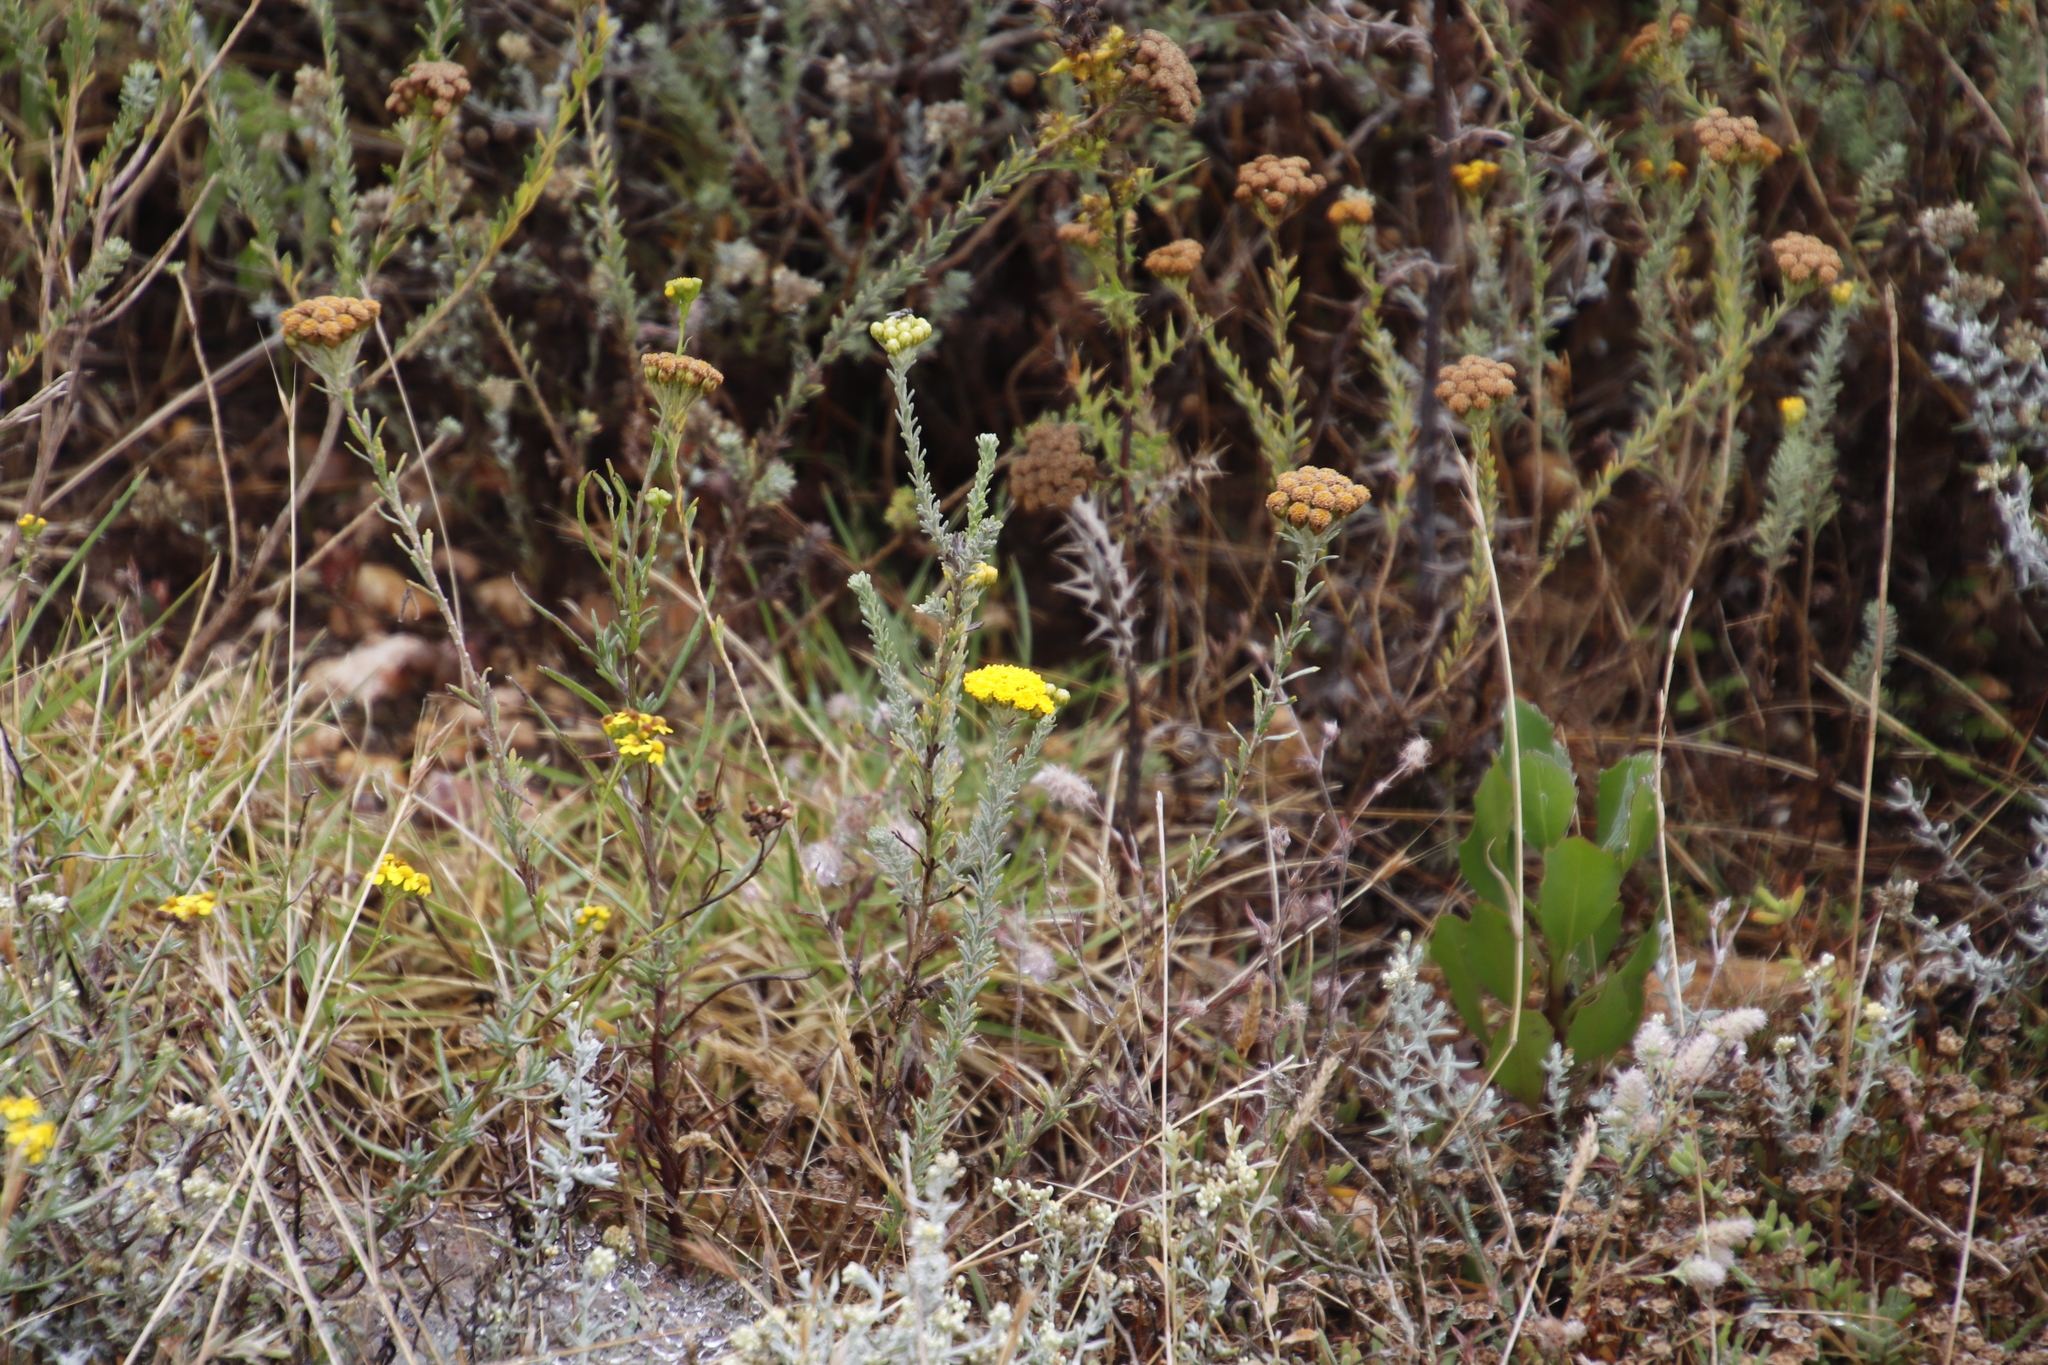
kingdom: Plantae
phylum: Tracheophyta
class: Magnoliopsida
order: Asterales
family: Asteraceae
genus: Athanasia
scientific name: Athanasia trifurcata
